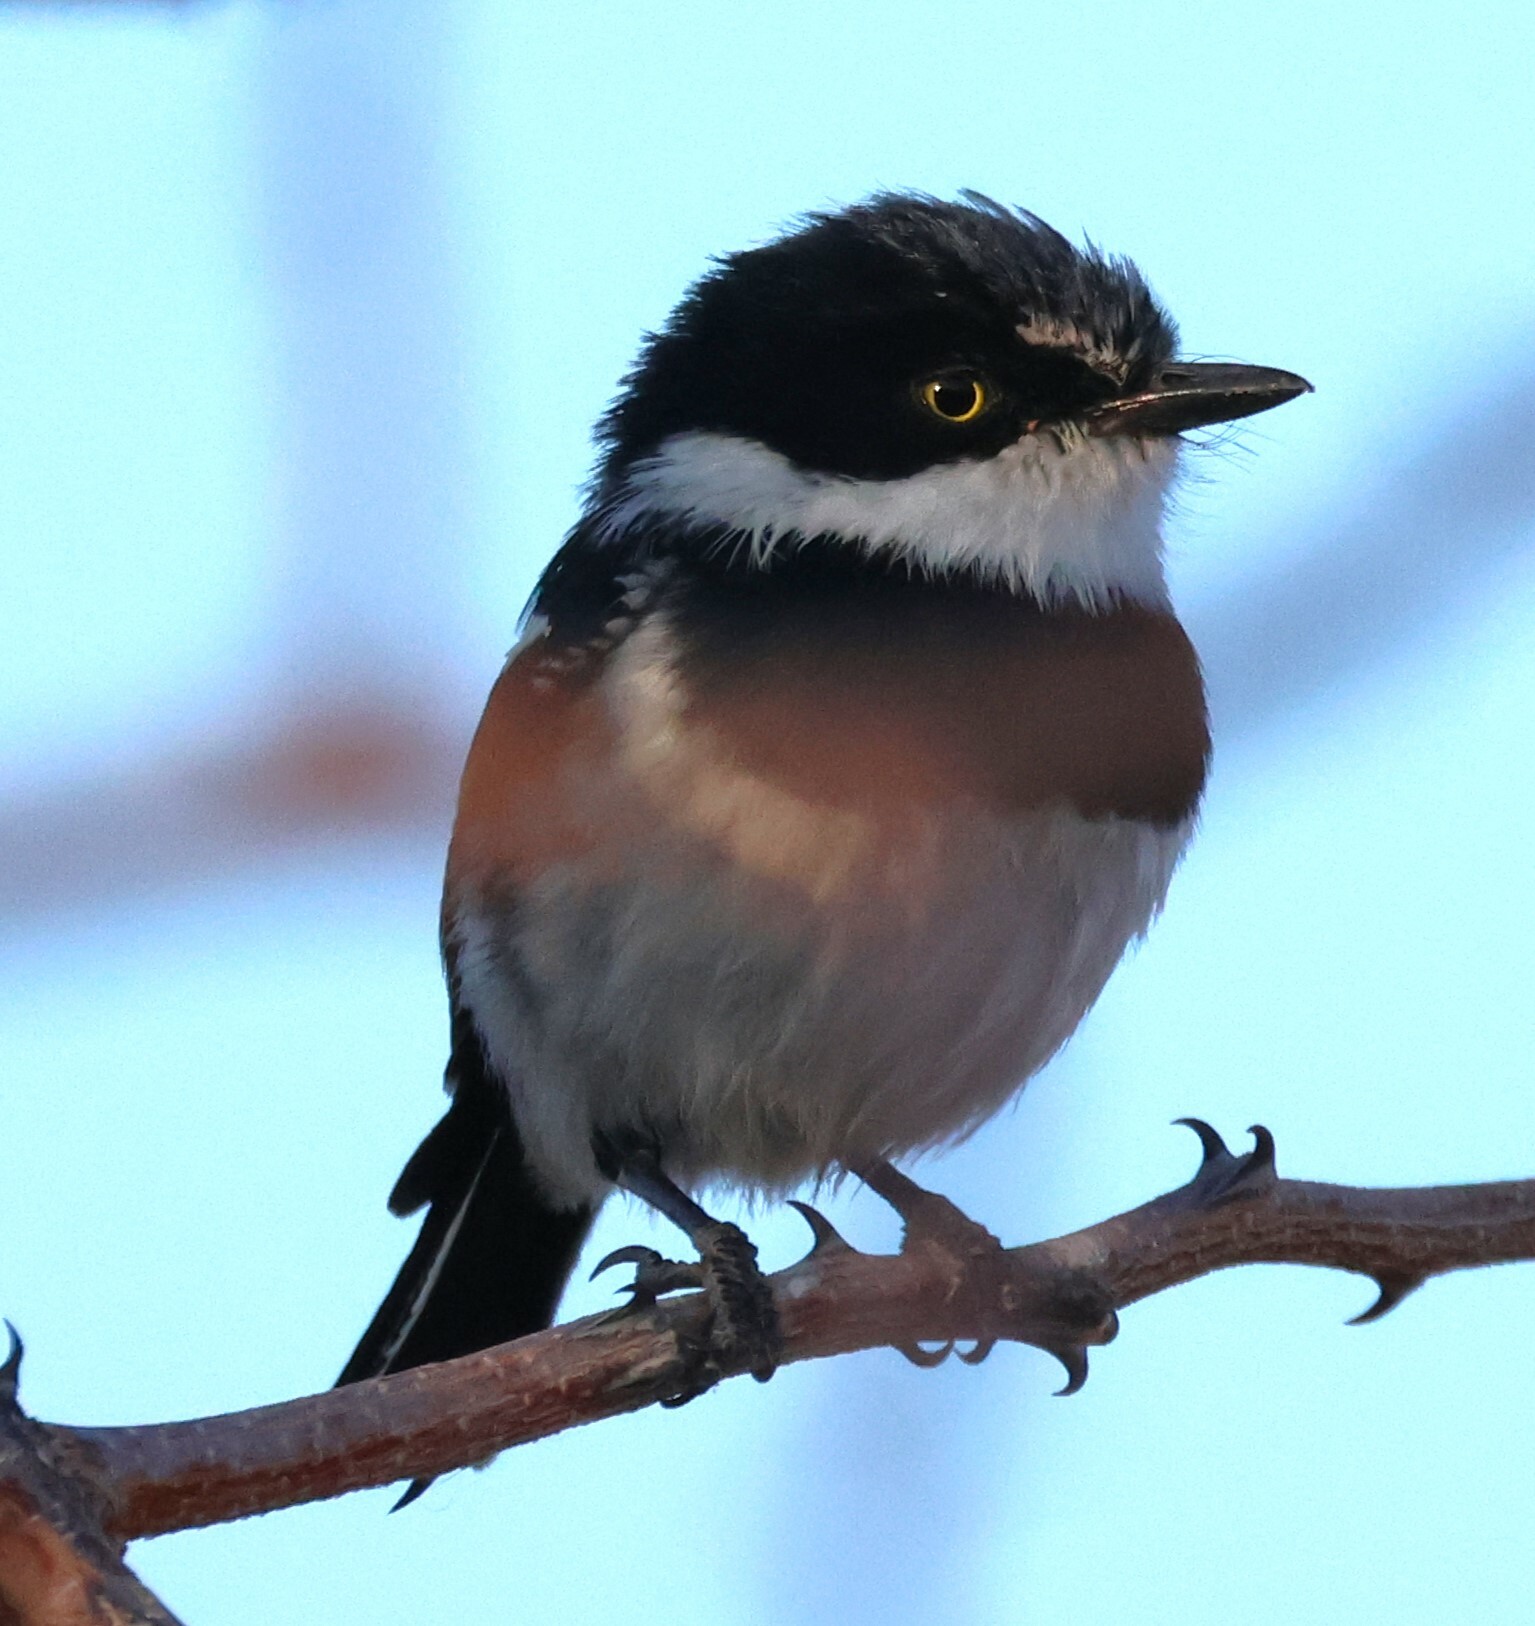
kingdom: Animalia
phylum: Chordata
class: Aves
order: Passeriformes
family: Platysteiridae
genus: Batis
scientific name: Batis pririt
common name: Pririt batis
